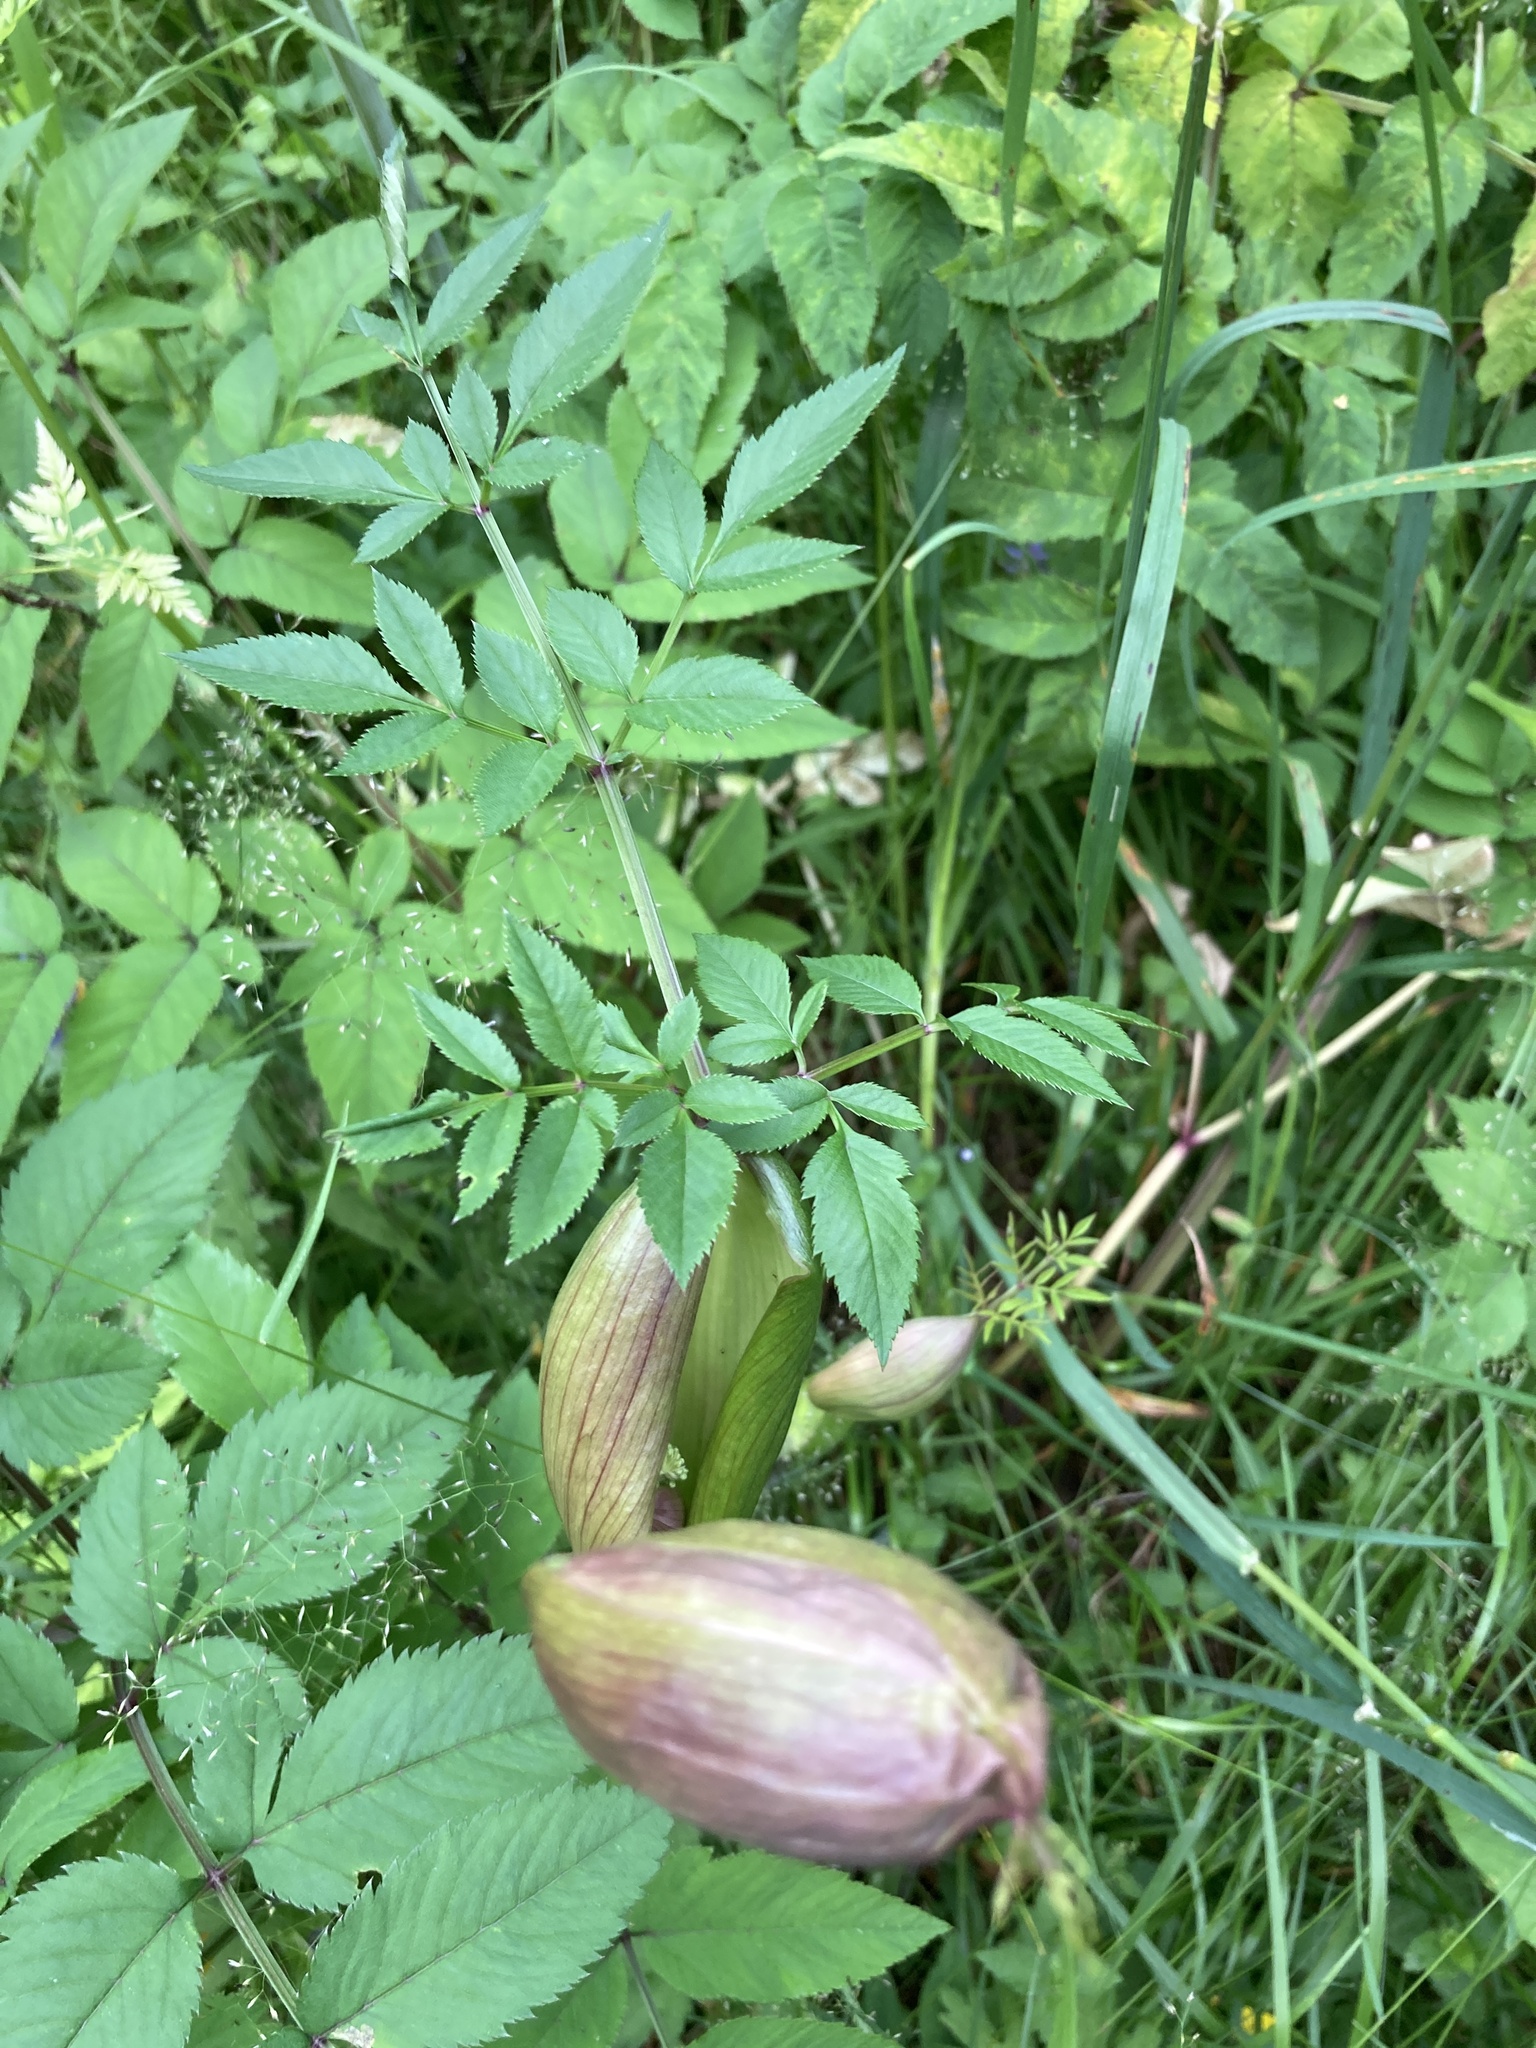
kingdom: Plantae
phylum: Tracheophyta
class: Magnoliopsida
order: Apiales
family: Apiaceae
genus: Angelica
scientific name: Angelica sylvestris
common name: Wild angelica
